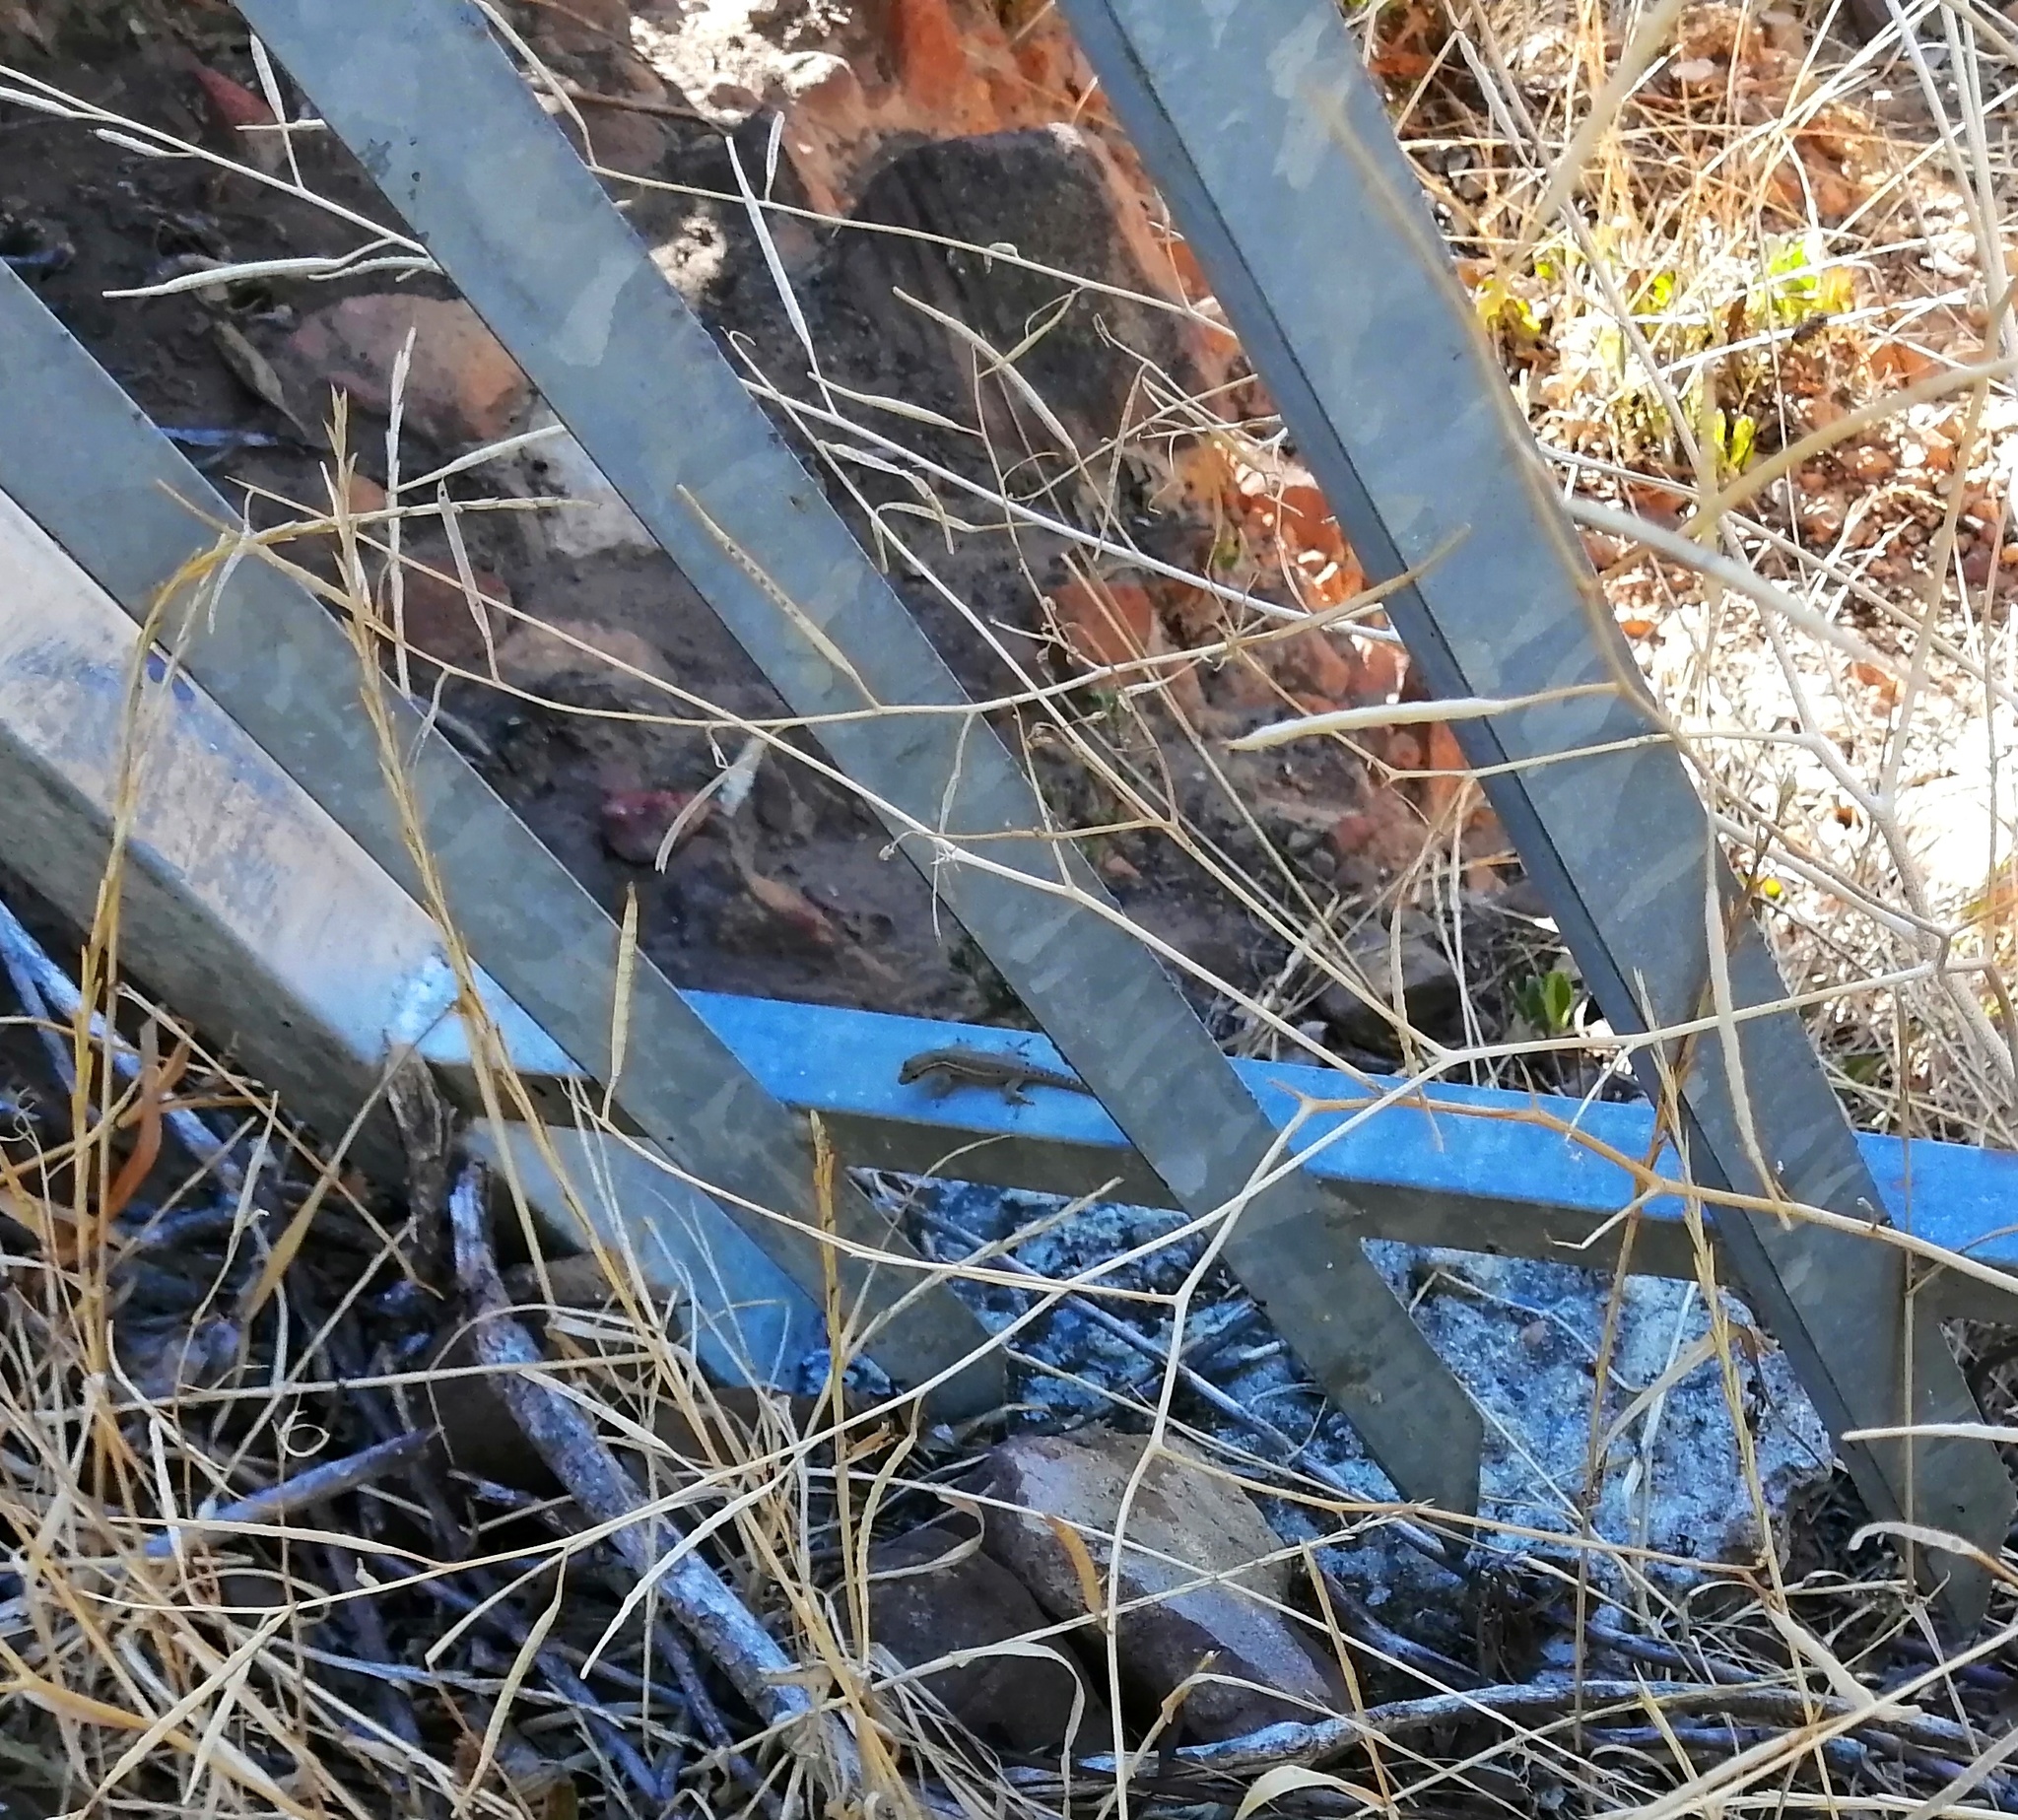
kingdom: Animalia
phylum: Chordata
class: Squamata
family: Gekkonidae
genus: Lygodactylus
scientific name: Lygodactylus capensis
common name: Cape dwarf gecko
